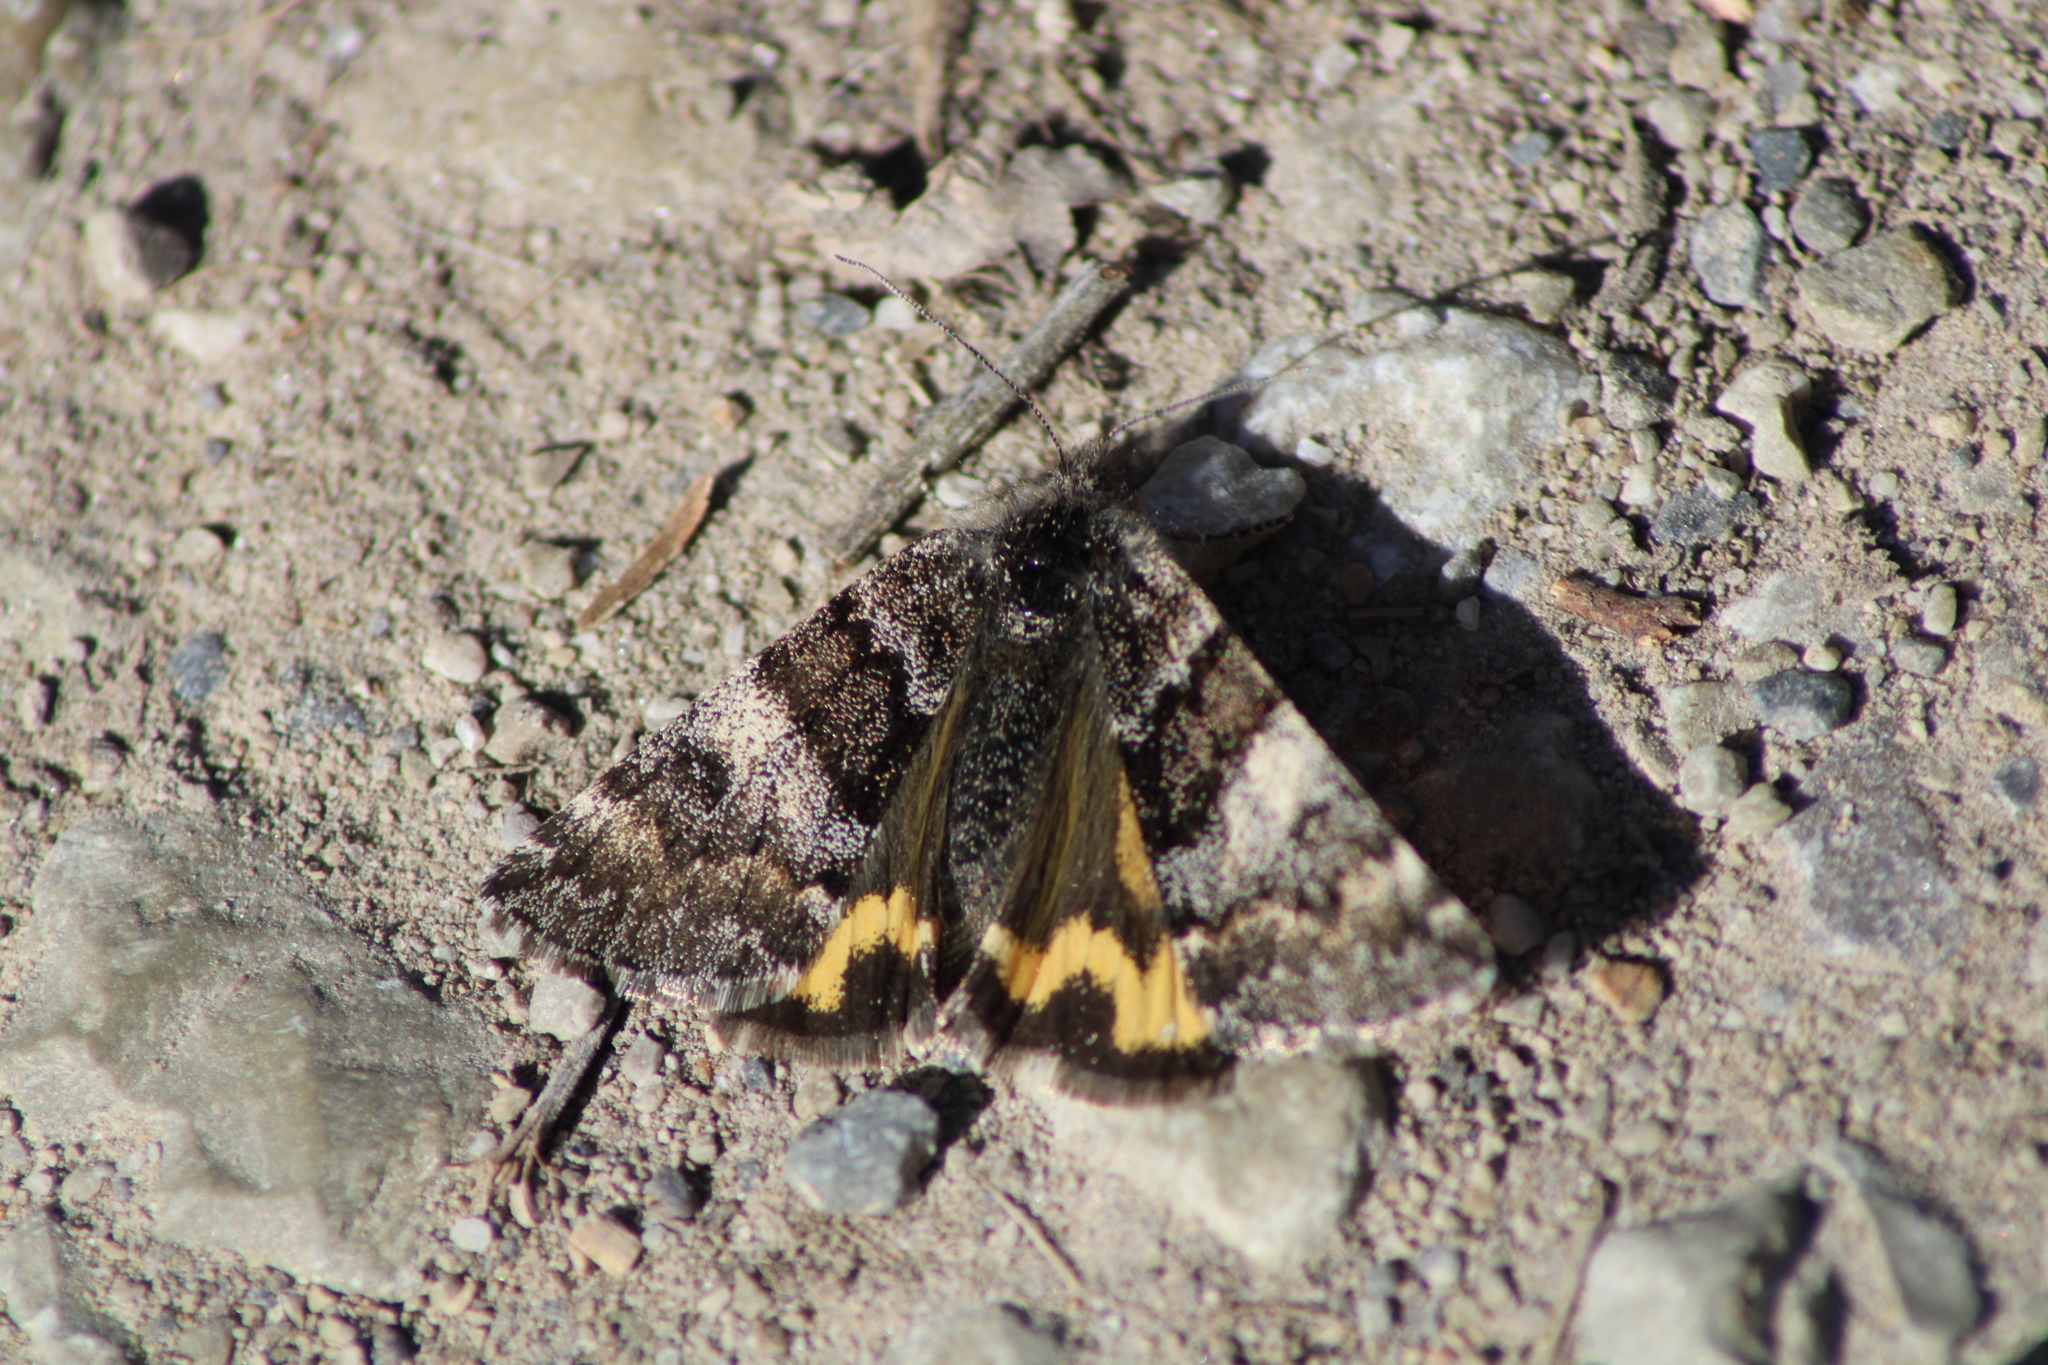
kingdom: Animalia
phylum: Arthropoda
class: Insecta
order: Lepidoptera
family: Geometridae
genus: Boudinotiana
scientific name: Boudinotiana puella
